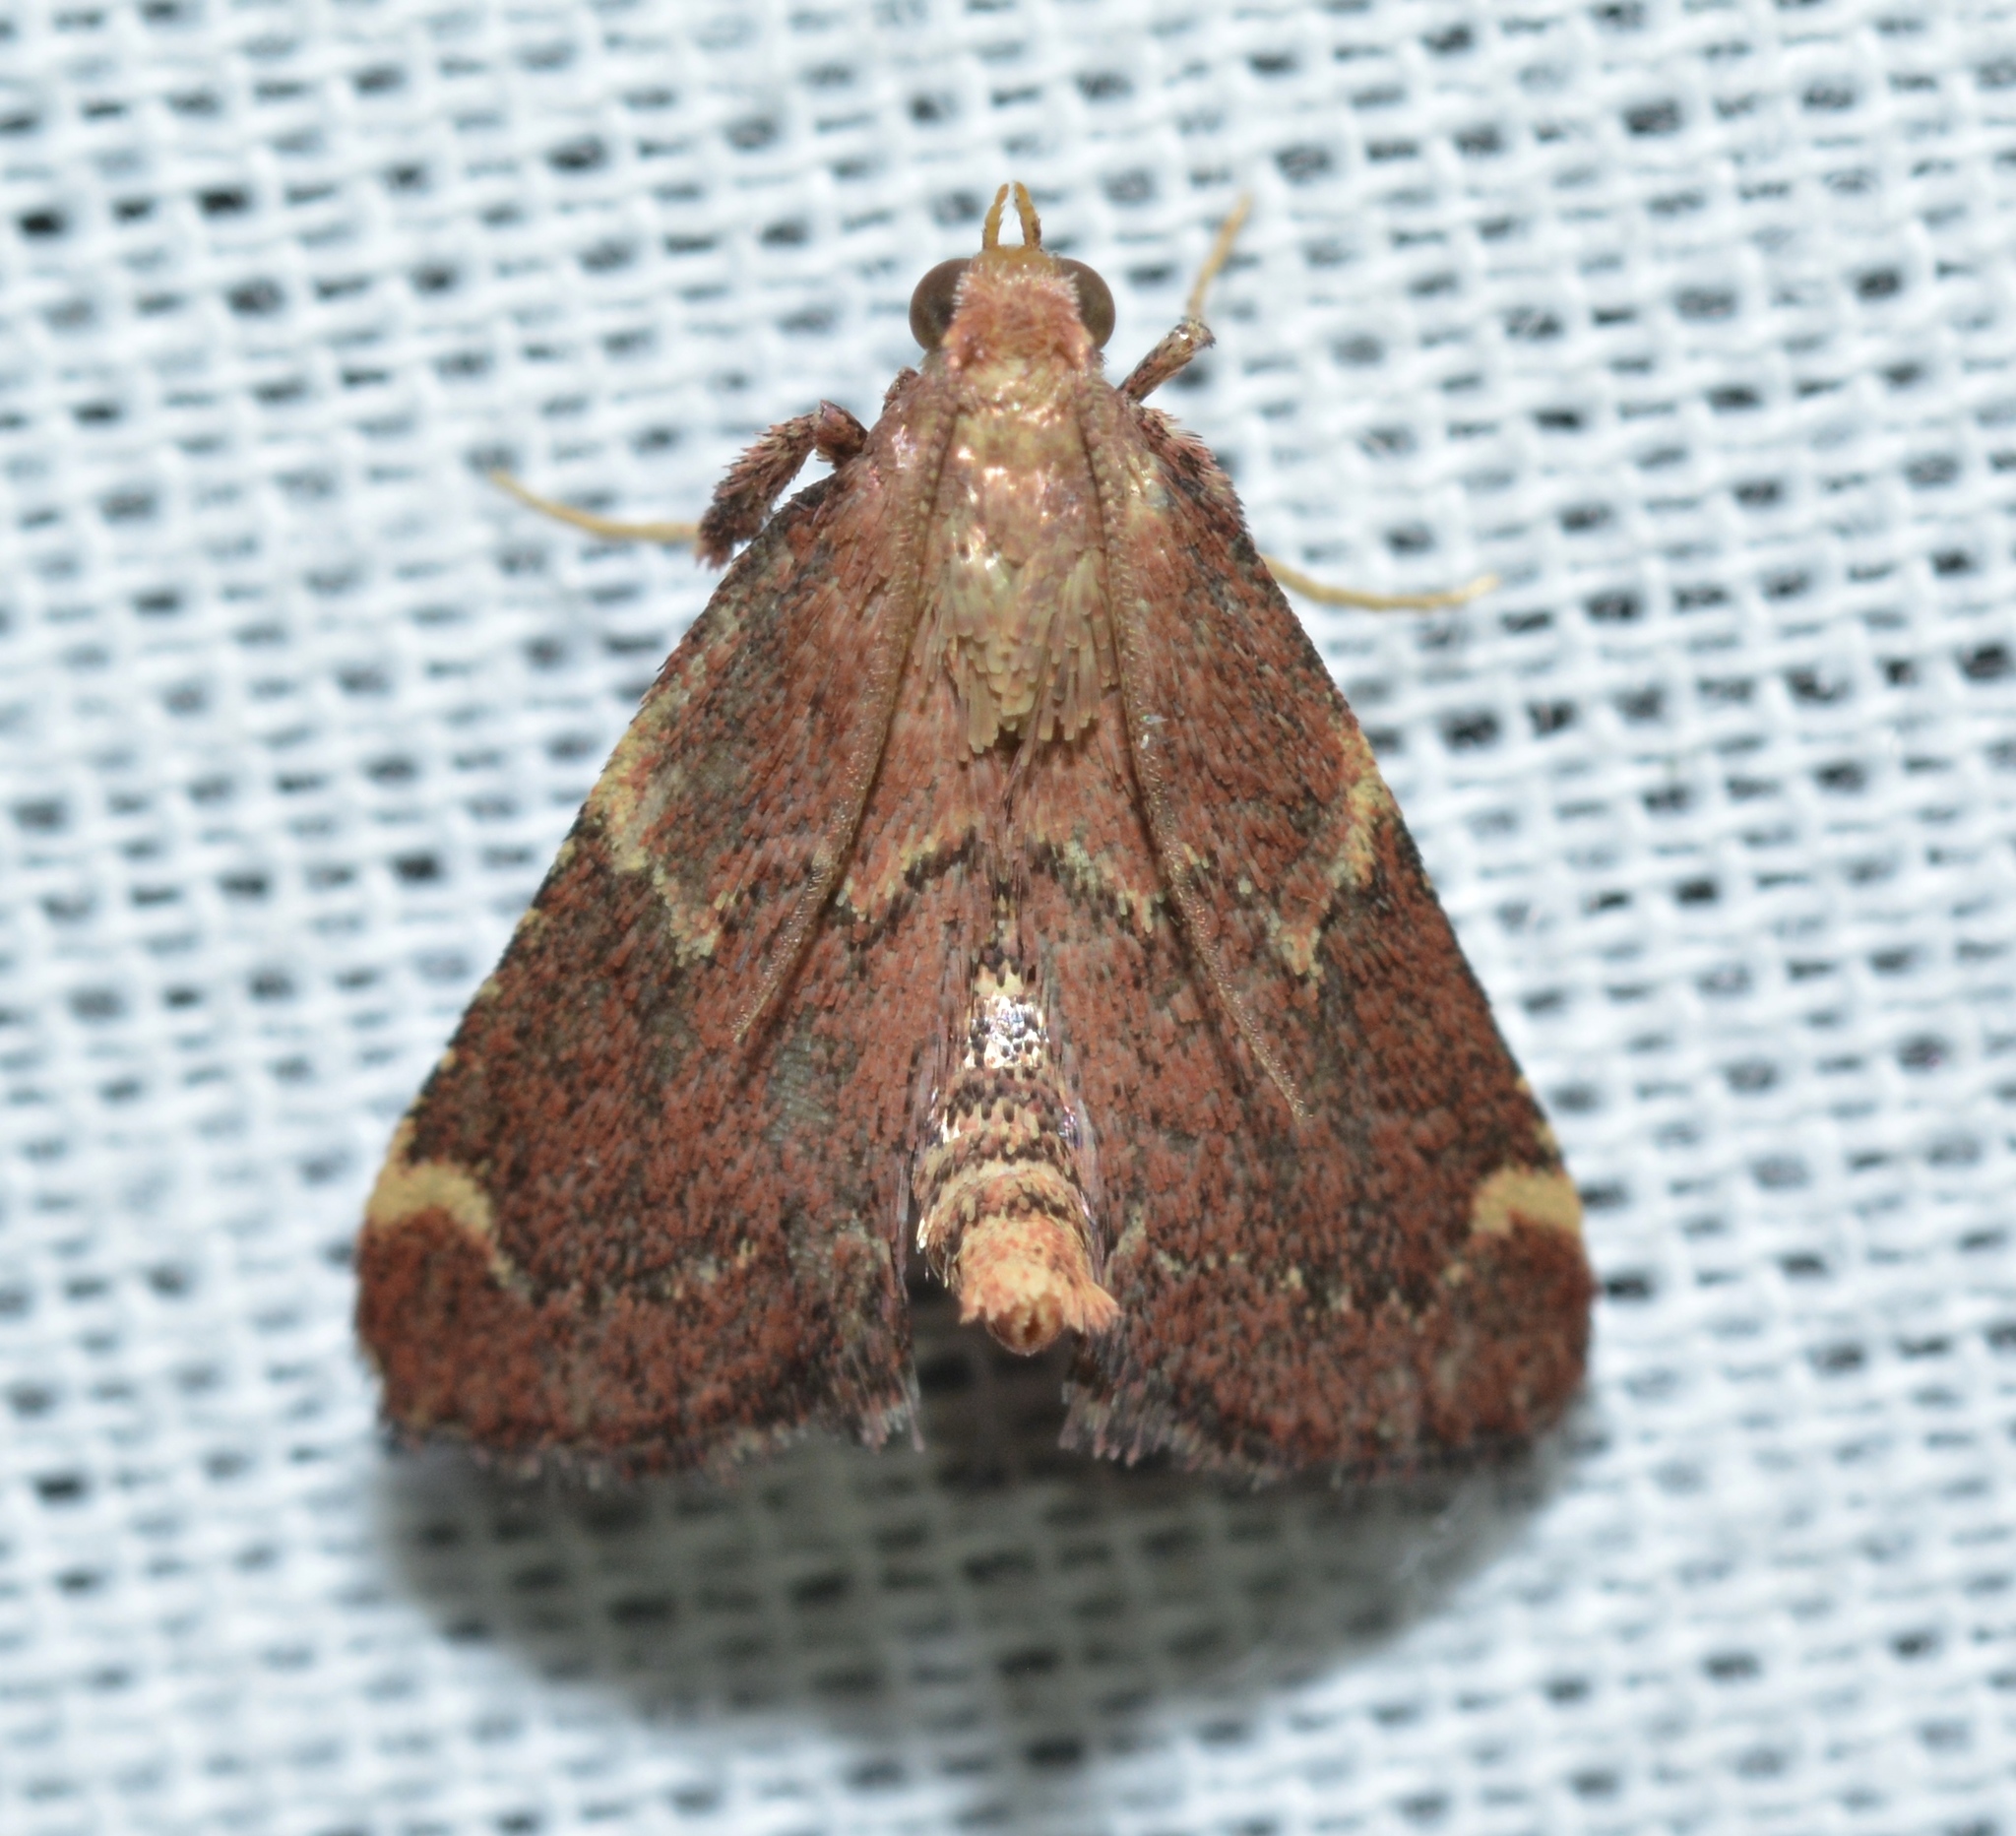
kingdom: Animalia
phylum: Arthropoda
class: Insecta
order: Lepidoptera
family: Pyralidae
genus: Hypsopygia
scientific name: Hypsopygia intermedialis
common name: Red-shawled moth
